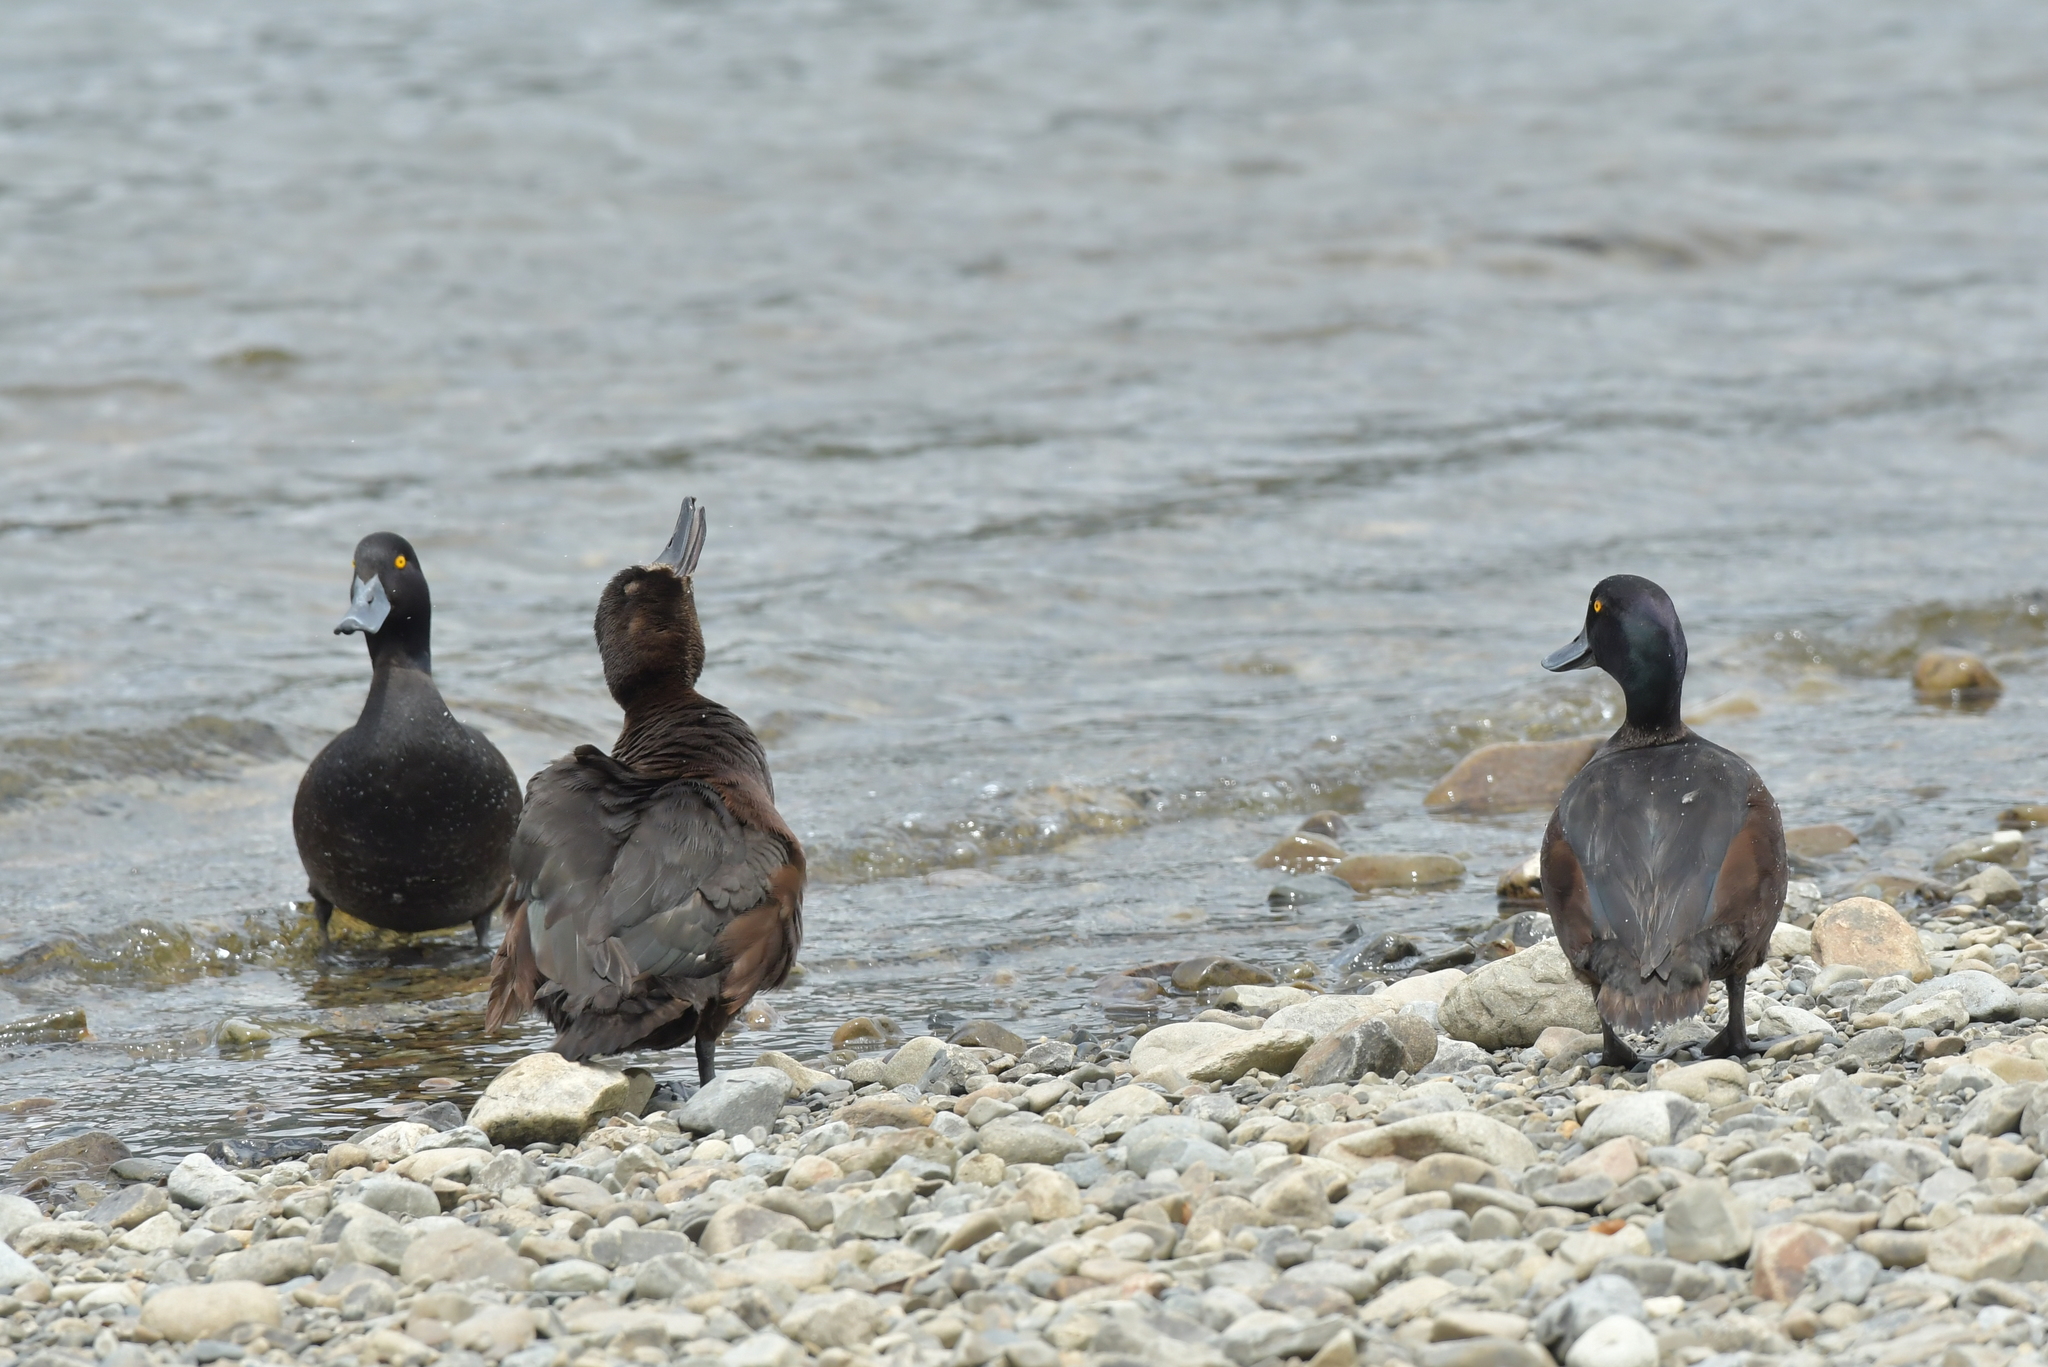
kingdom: Animalia
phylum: Chordata
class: Aves
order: Anseriformes
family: Anatidae
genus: Aythya
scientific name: Aythya novaeseelandiae
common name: New zealand scaup
